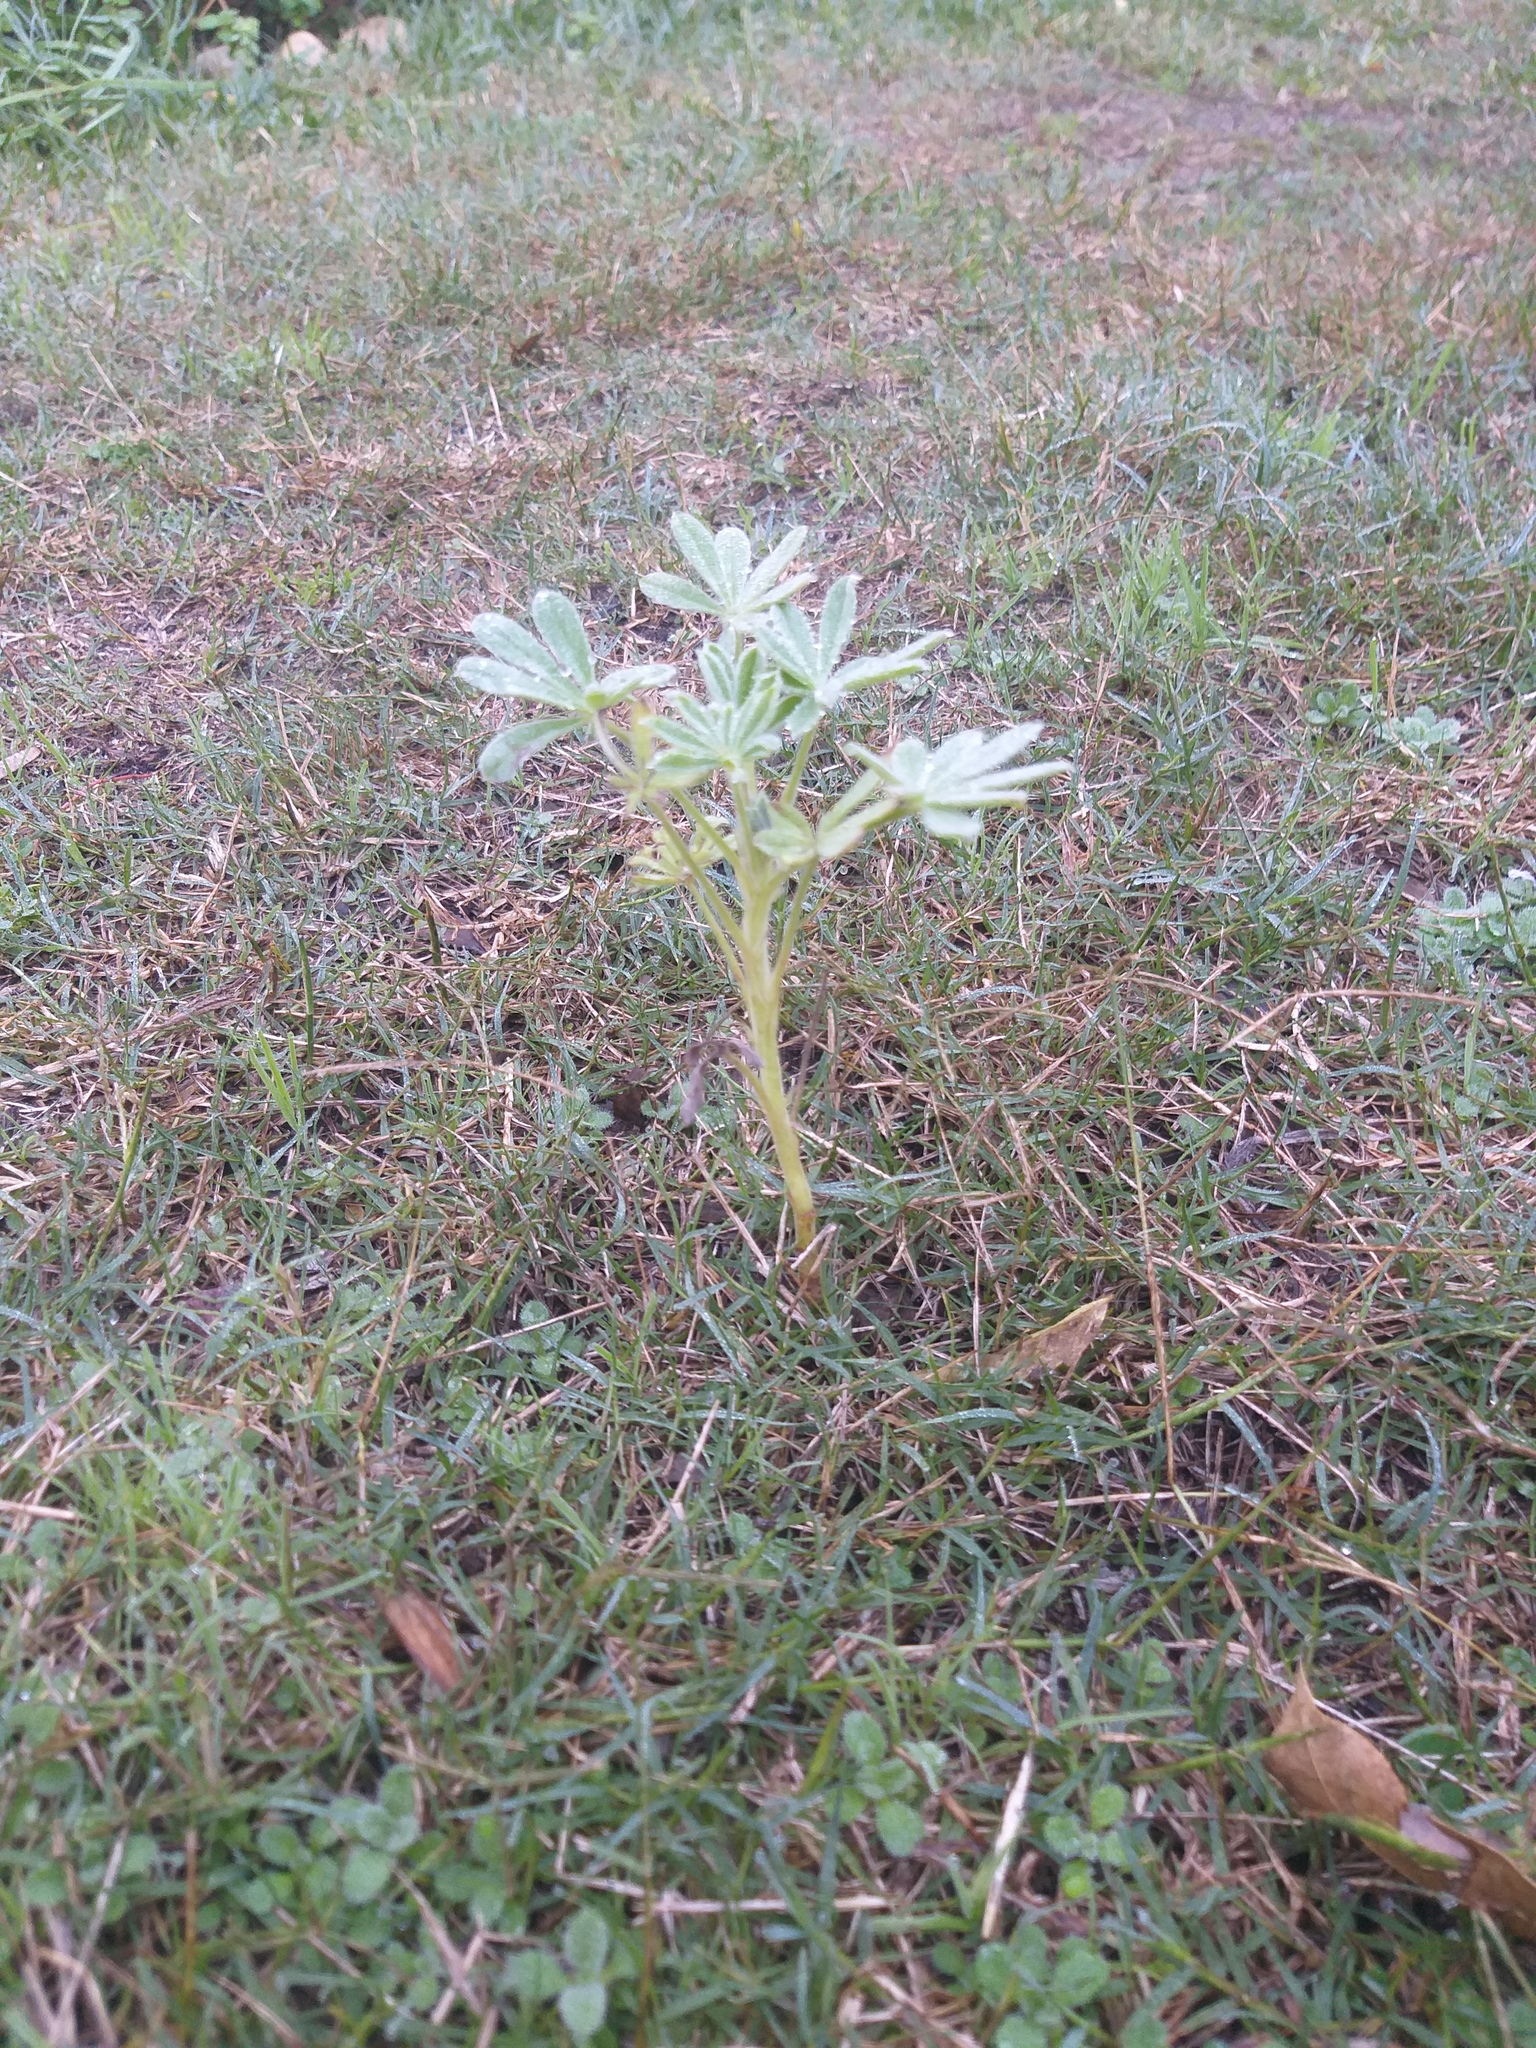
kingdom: Plantae
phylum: Tracheophyta
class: Magnoliopsida
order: Fabales
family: Fabaceae
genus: Lupinus
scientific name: Lupinus cosentinii
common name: Hairy blue lupin
